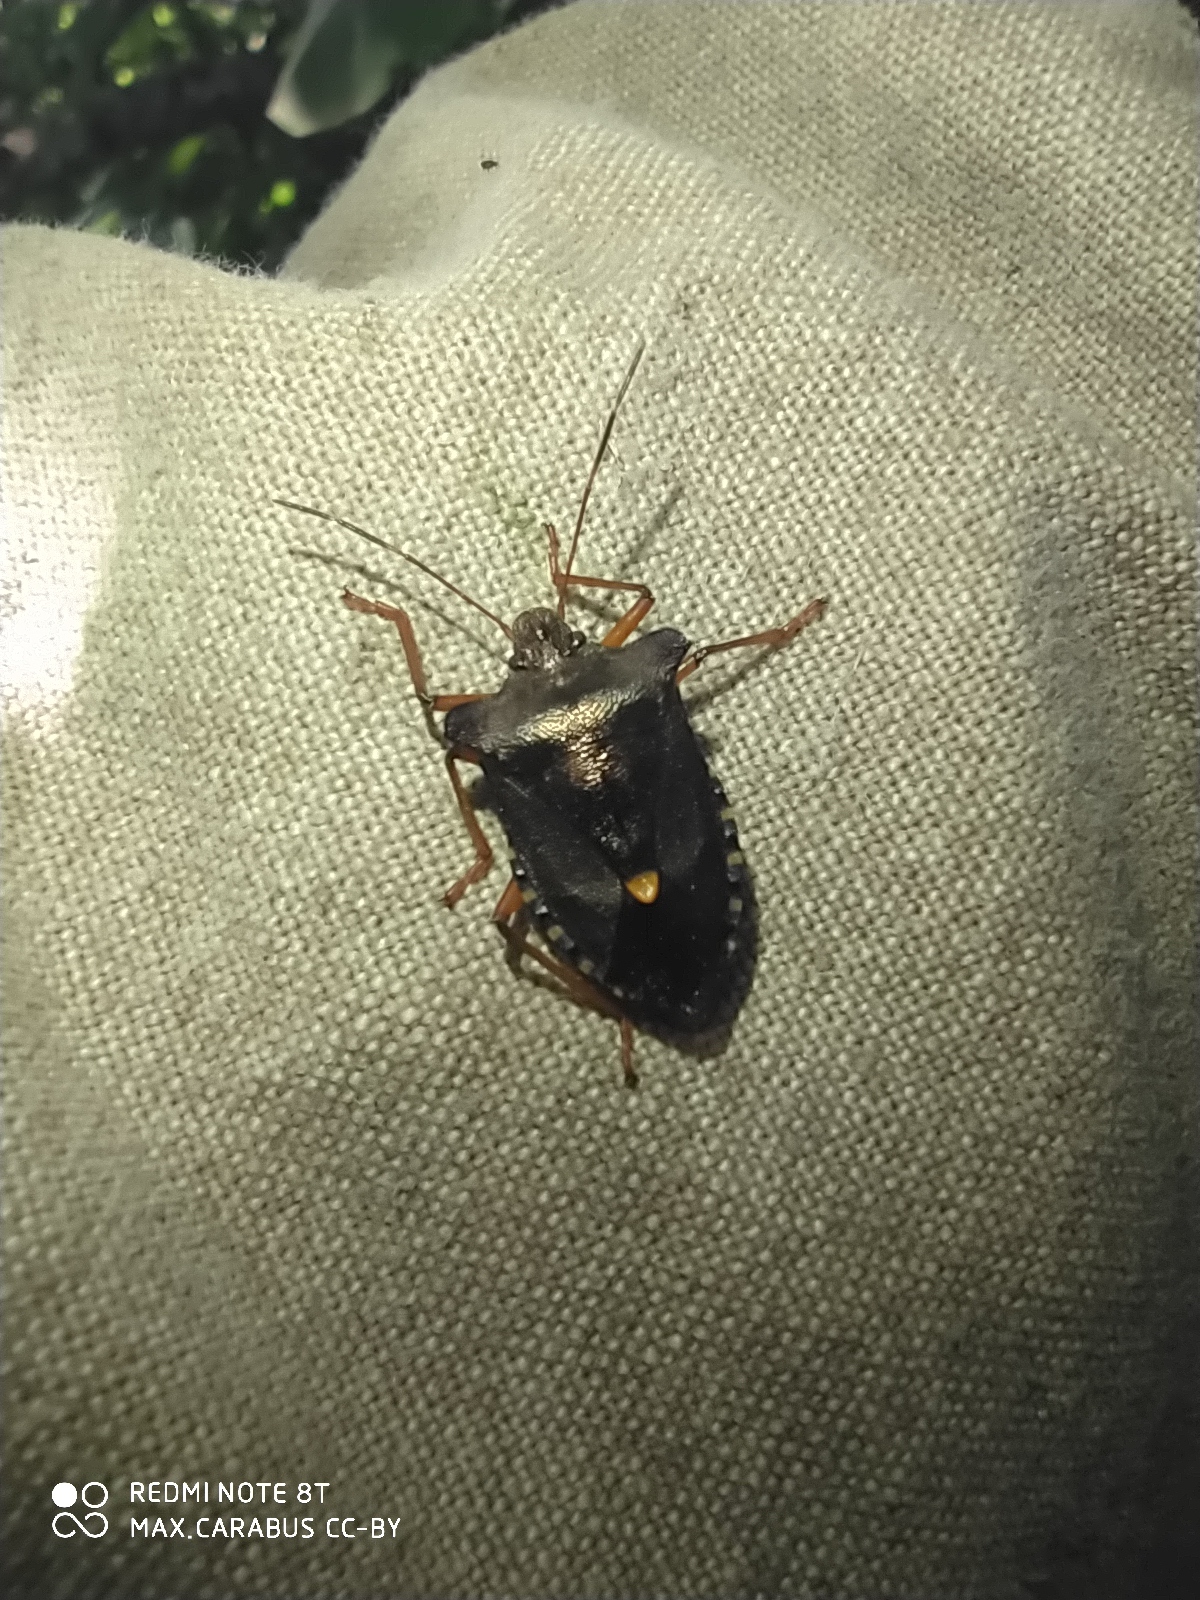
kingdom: Animalia
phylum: Arthropoda
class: Insecta
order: Hemiptera
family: Pentatomidae
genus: Pentatoma
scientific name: Pentatoma rufipes
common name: Forest bug
